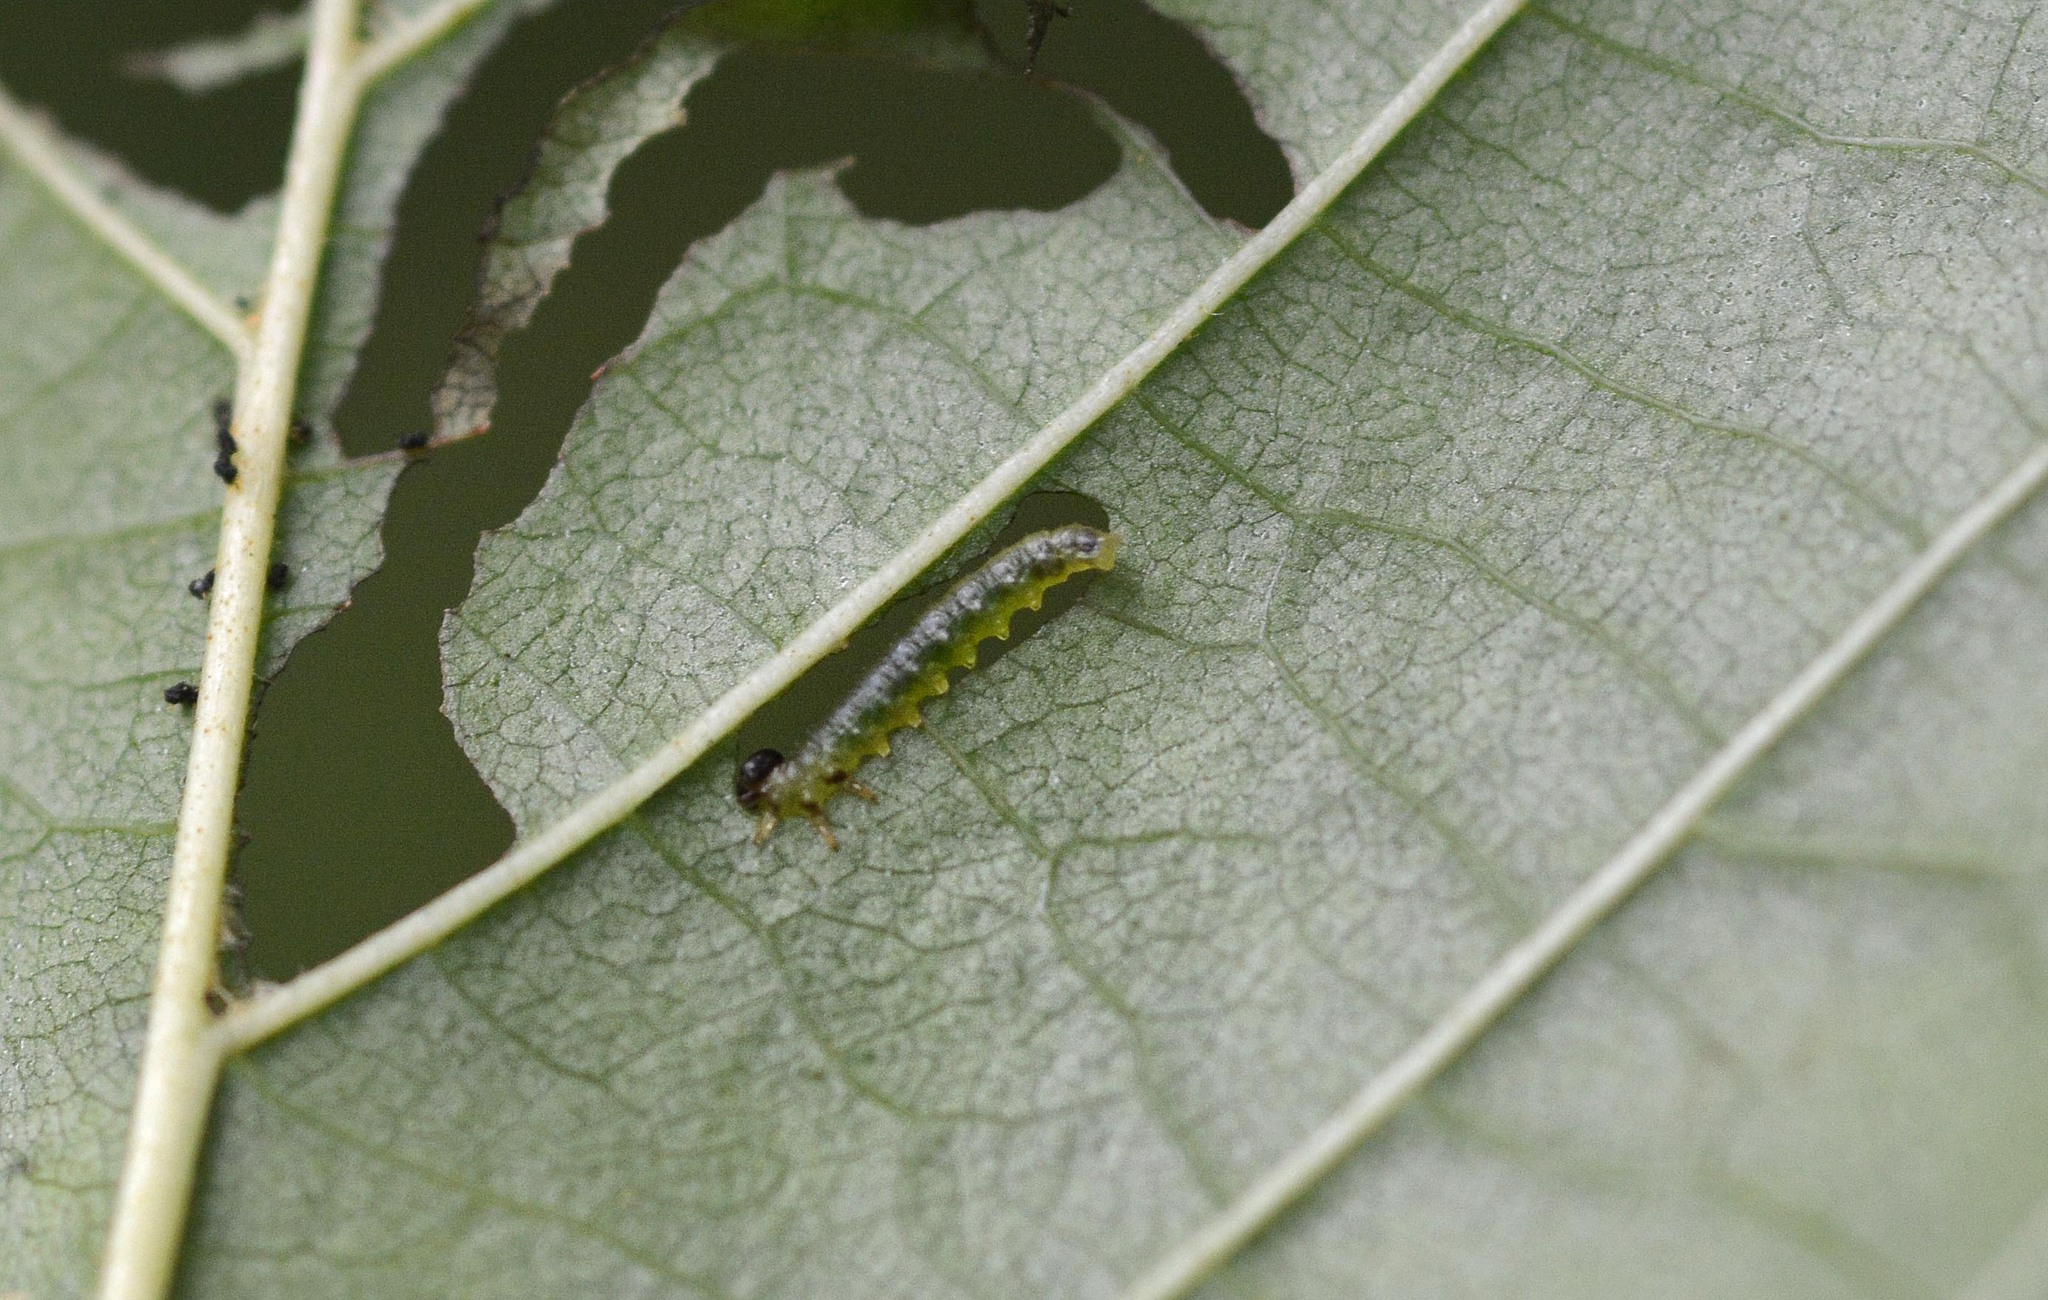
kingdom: Animalia
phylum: Arthropoda
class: Insecta
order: Hymenoptera
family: Tenthredinidae
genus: Hemichroa
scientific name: Hemichroa australis
